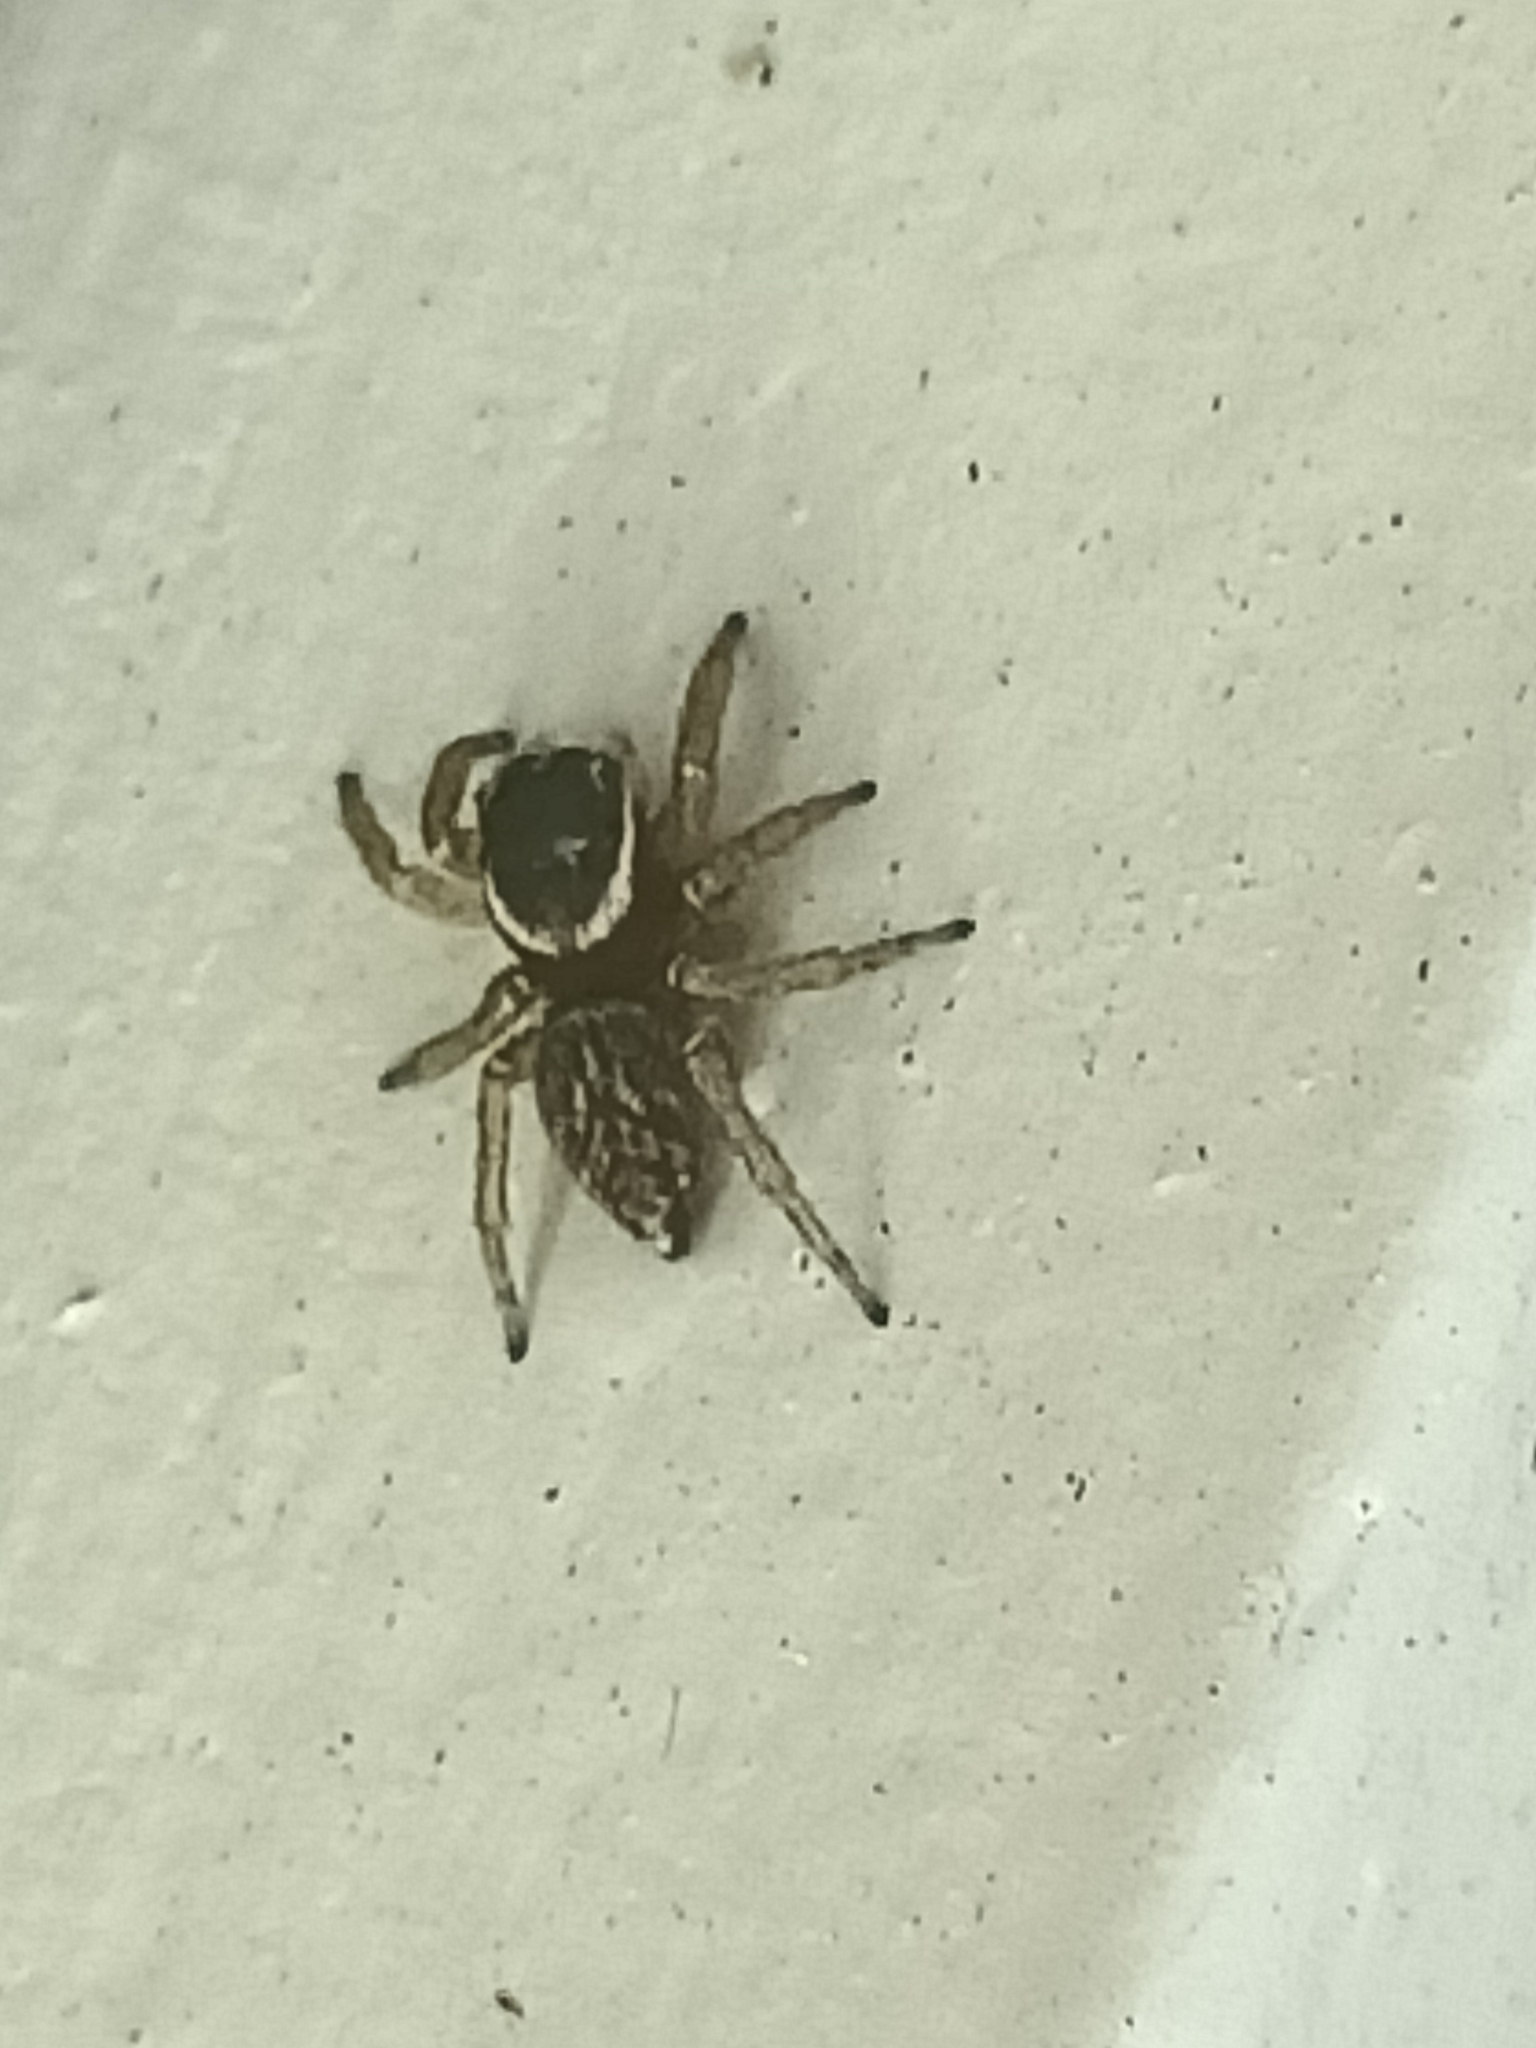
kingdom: Animalia
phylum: Arthropoda
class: Arachnida
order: Araneae
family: Salticidae
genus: Maratus
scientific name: Maratus griseus
